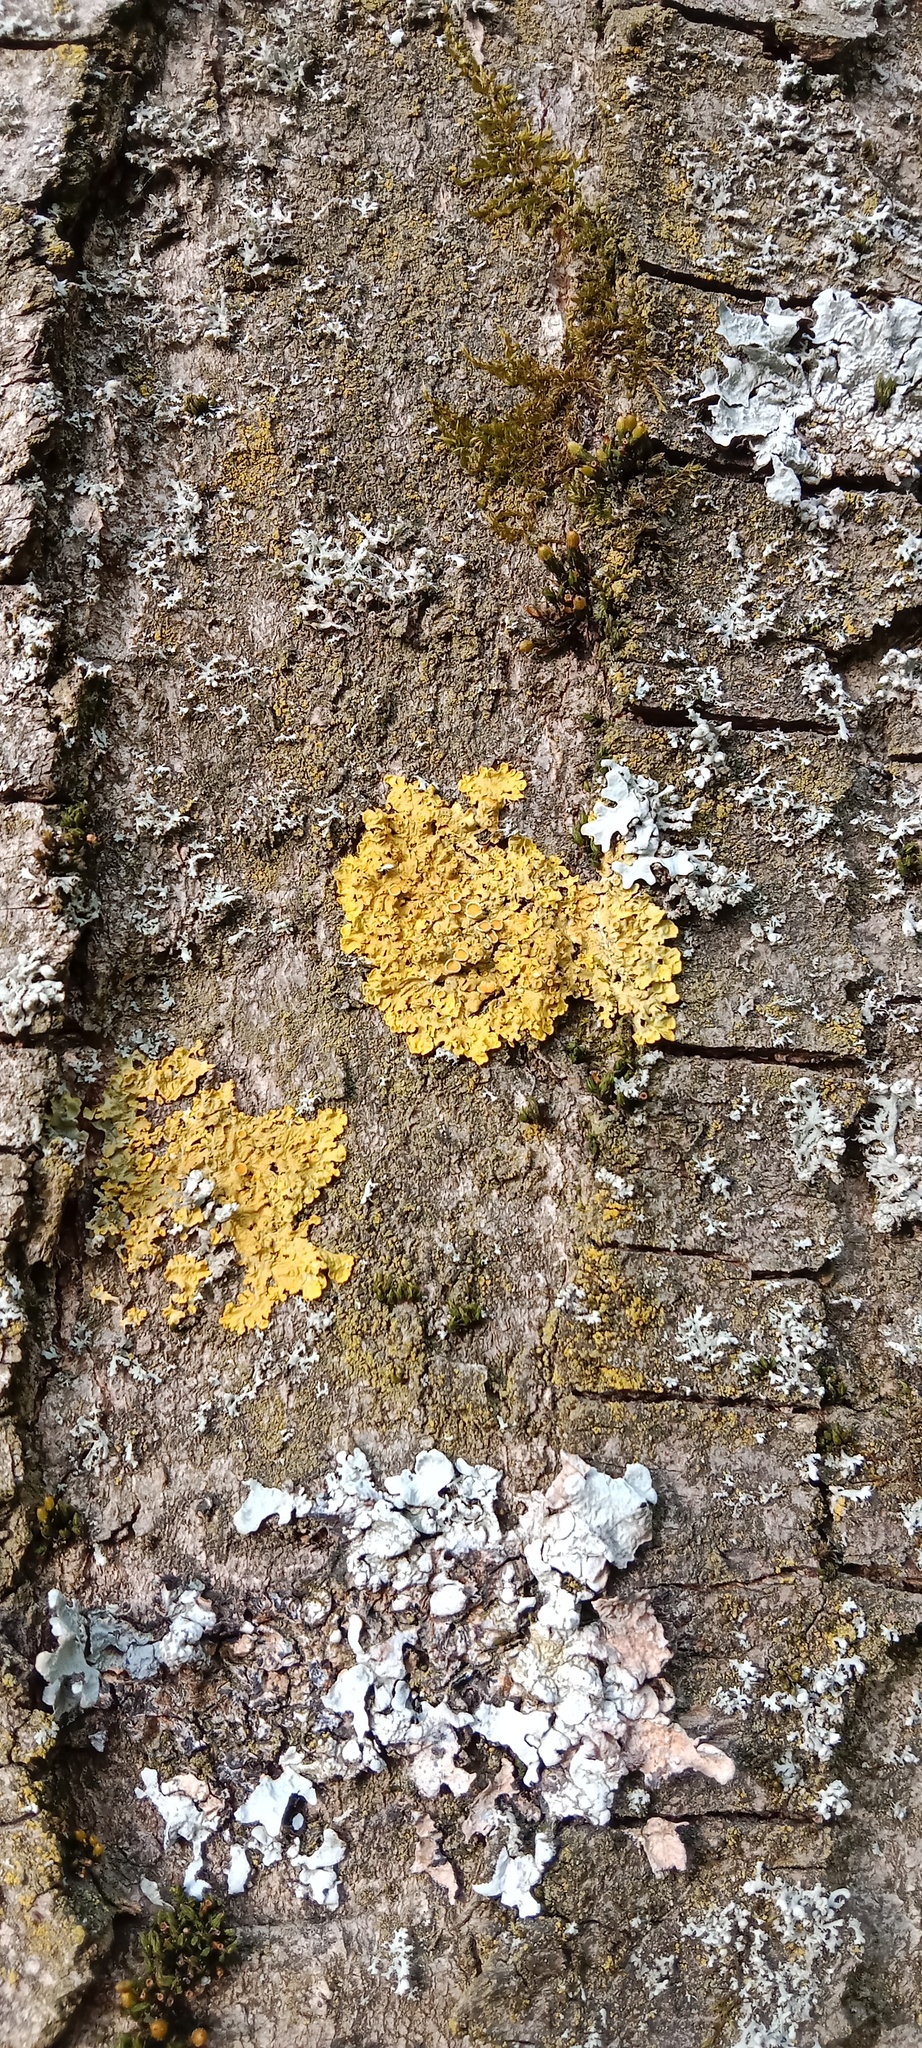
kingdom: Fungi
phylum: Ascomycota
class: Lecanoromycetes
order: Teloschistales
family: Teloschistaceae
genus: Xanthoria
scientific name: Xanthoria parietina
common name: Common orange lichen
